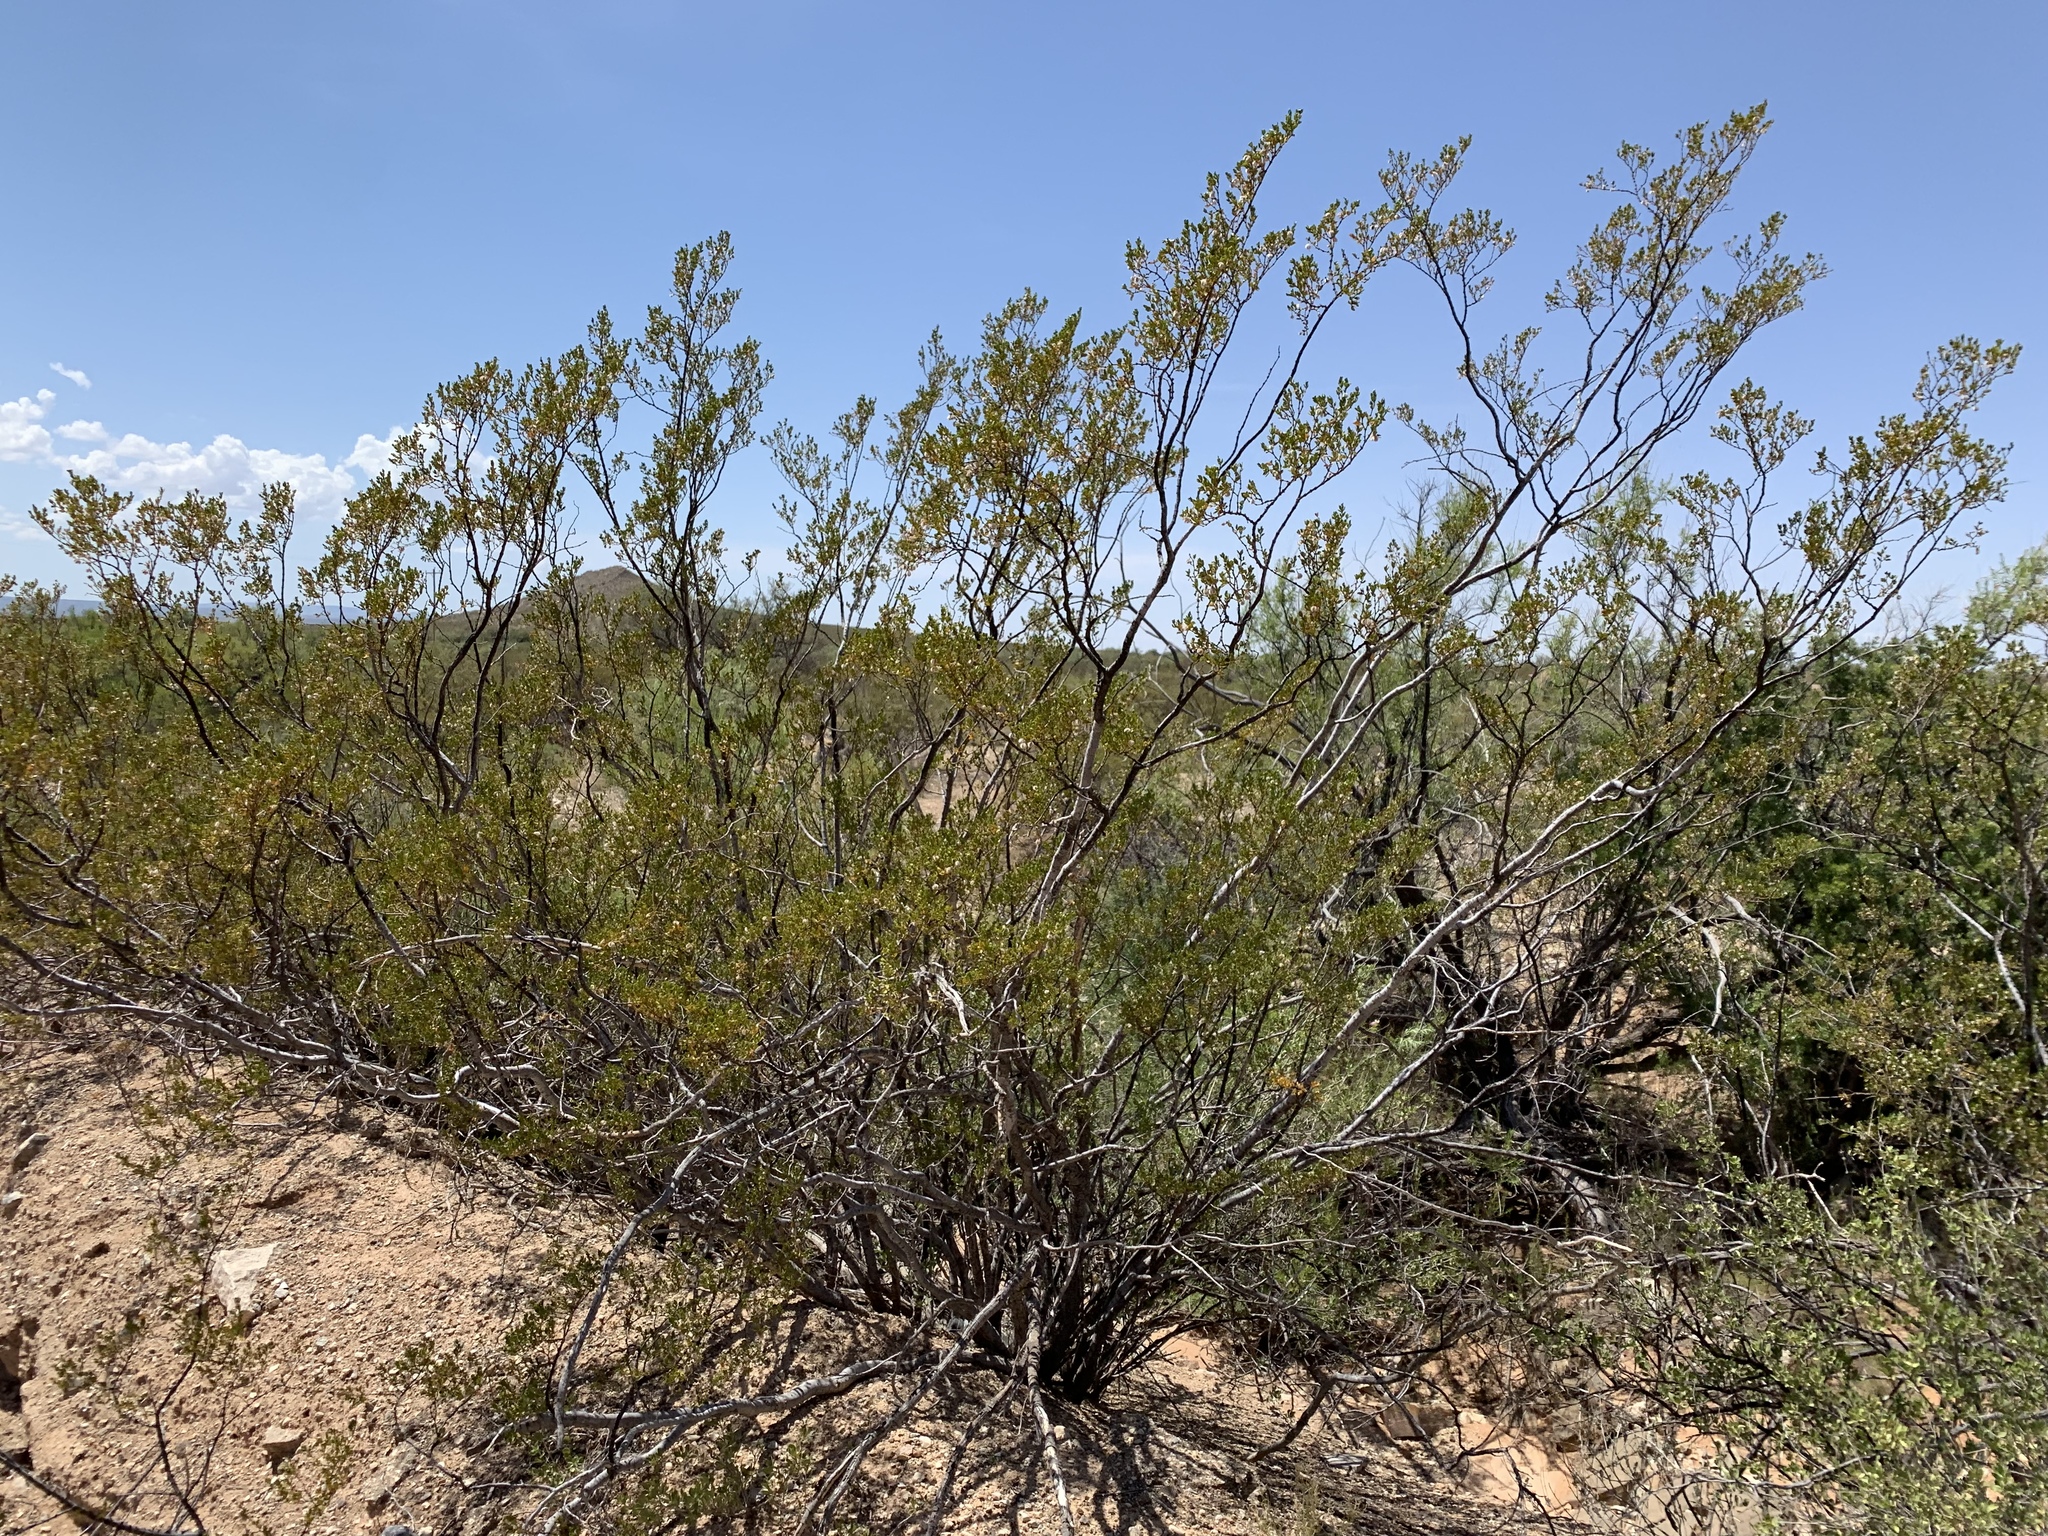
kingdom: Plantae
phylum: Tracheophyta
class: Magnoliopsida
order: Zygophyllales
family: Zygophyllaceae
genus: Larrea
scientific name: Larrea tridentata
